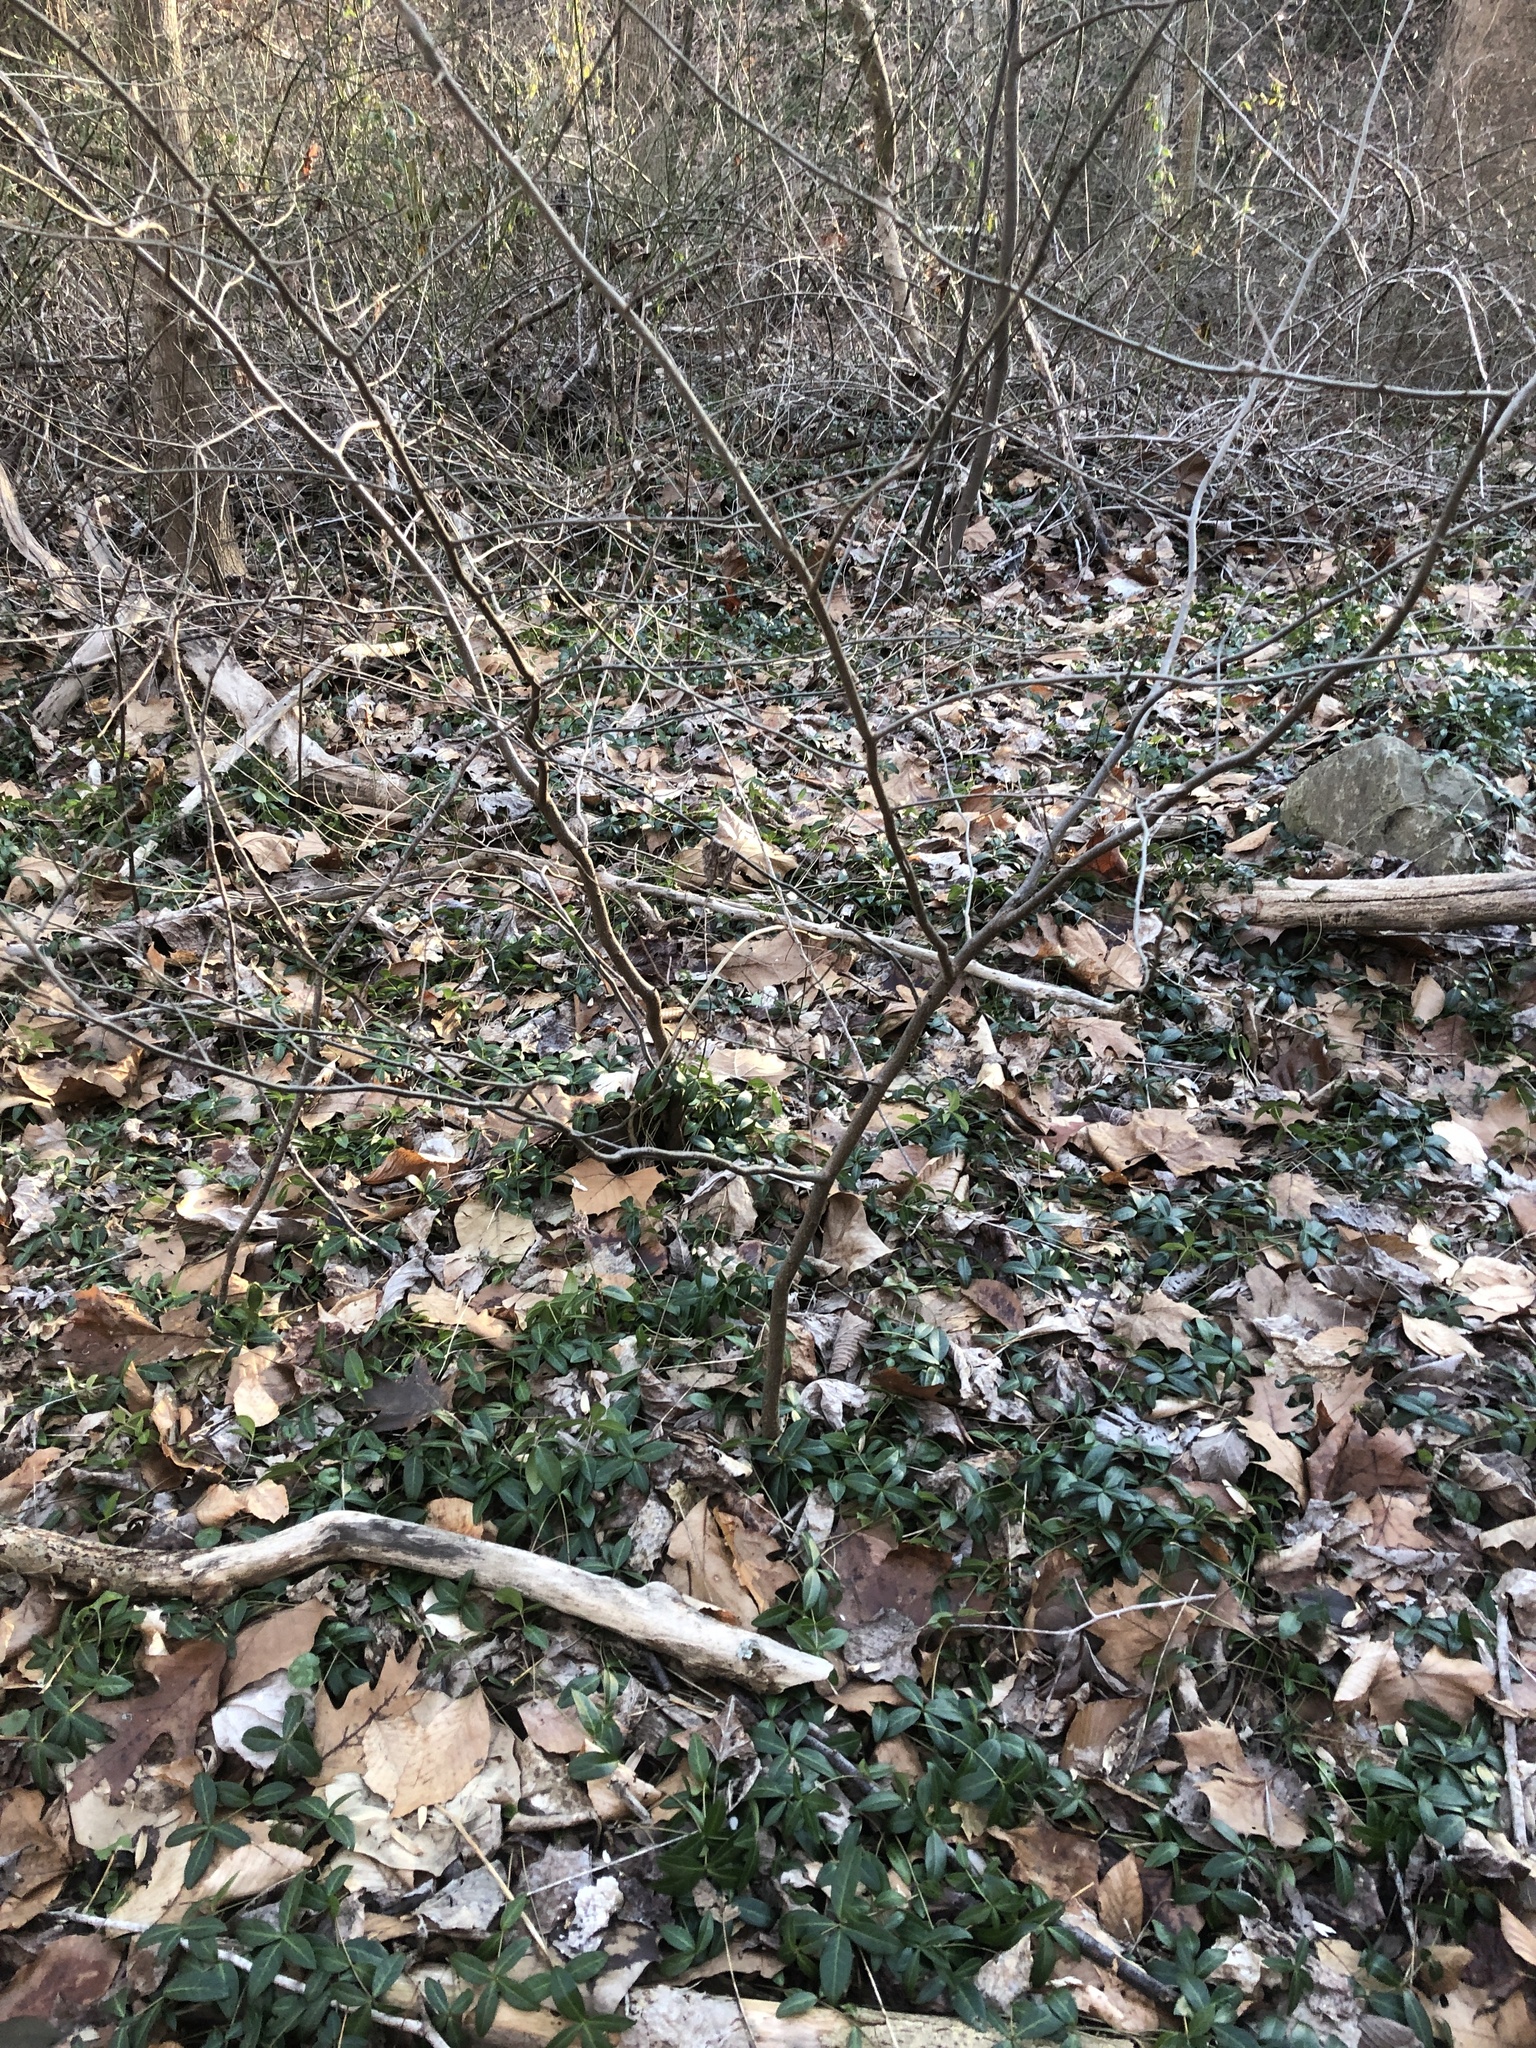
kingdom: Plantae
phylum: Tracheophyta
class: Magnoliopsida
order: Gentianales
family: Apocynaceae
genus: Vinca
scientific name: Vinca minor
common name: Lesser periwinkle
